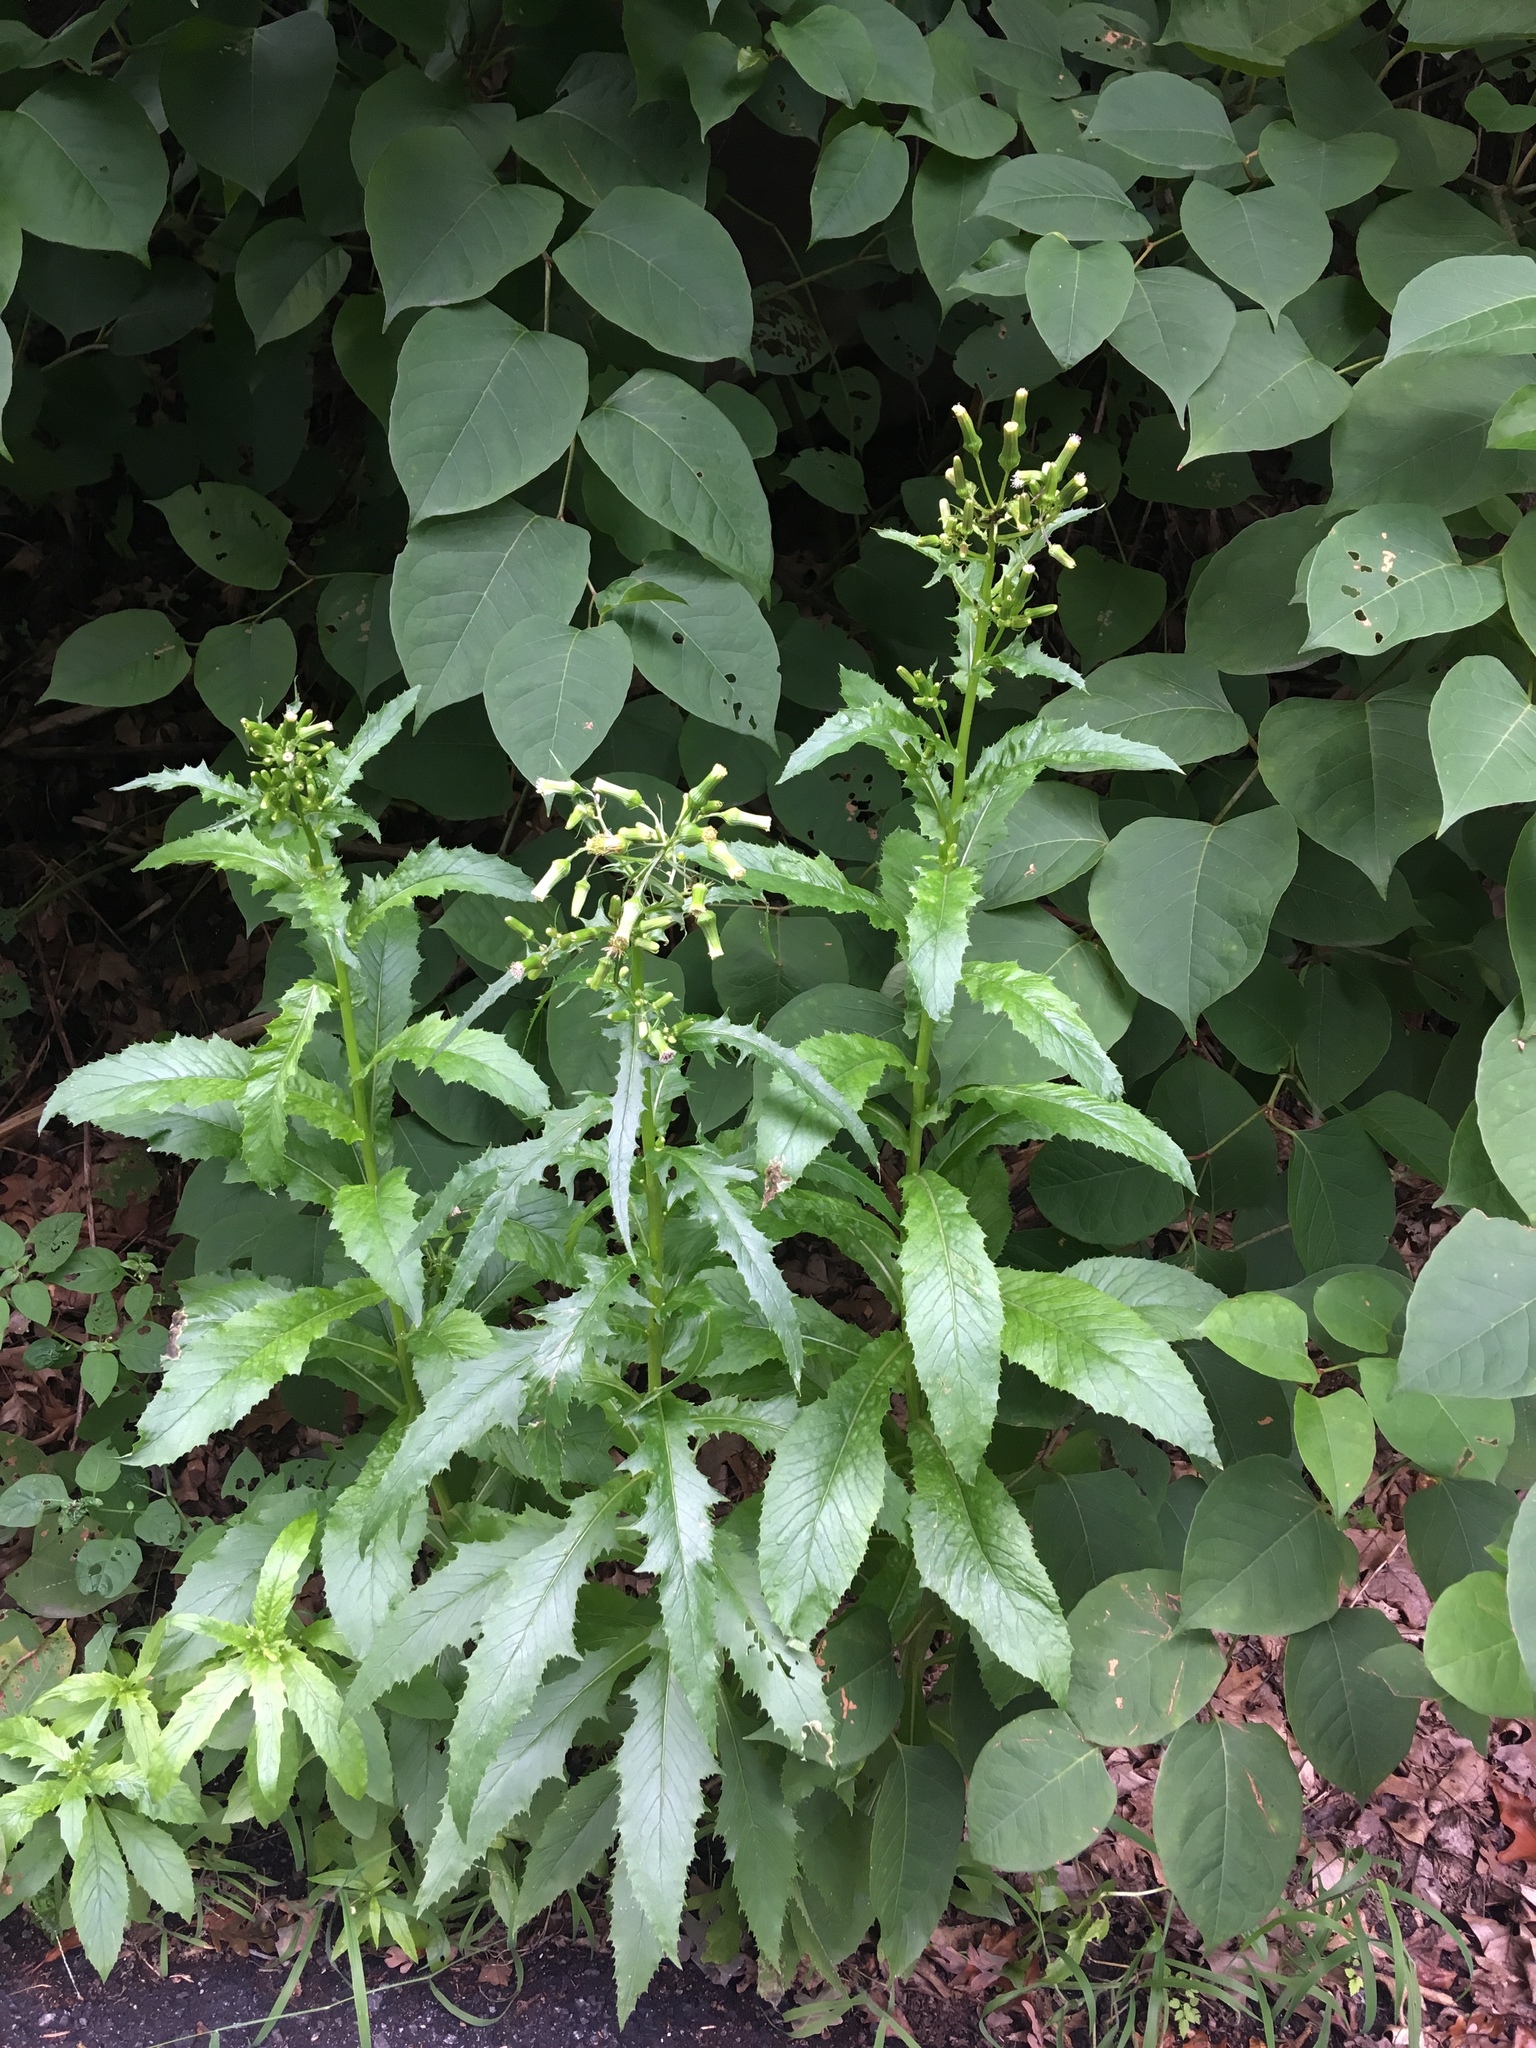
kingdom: Plantae
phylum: Tracheophyta
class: Magnoliopsida
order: Asterales
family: Asteraceae
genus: Erechtites
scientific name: Erechtites hieraciifolius
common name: American burnweed
